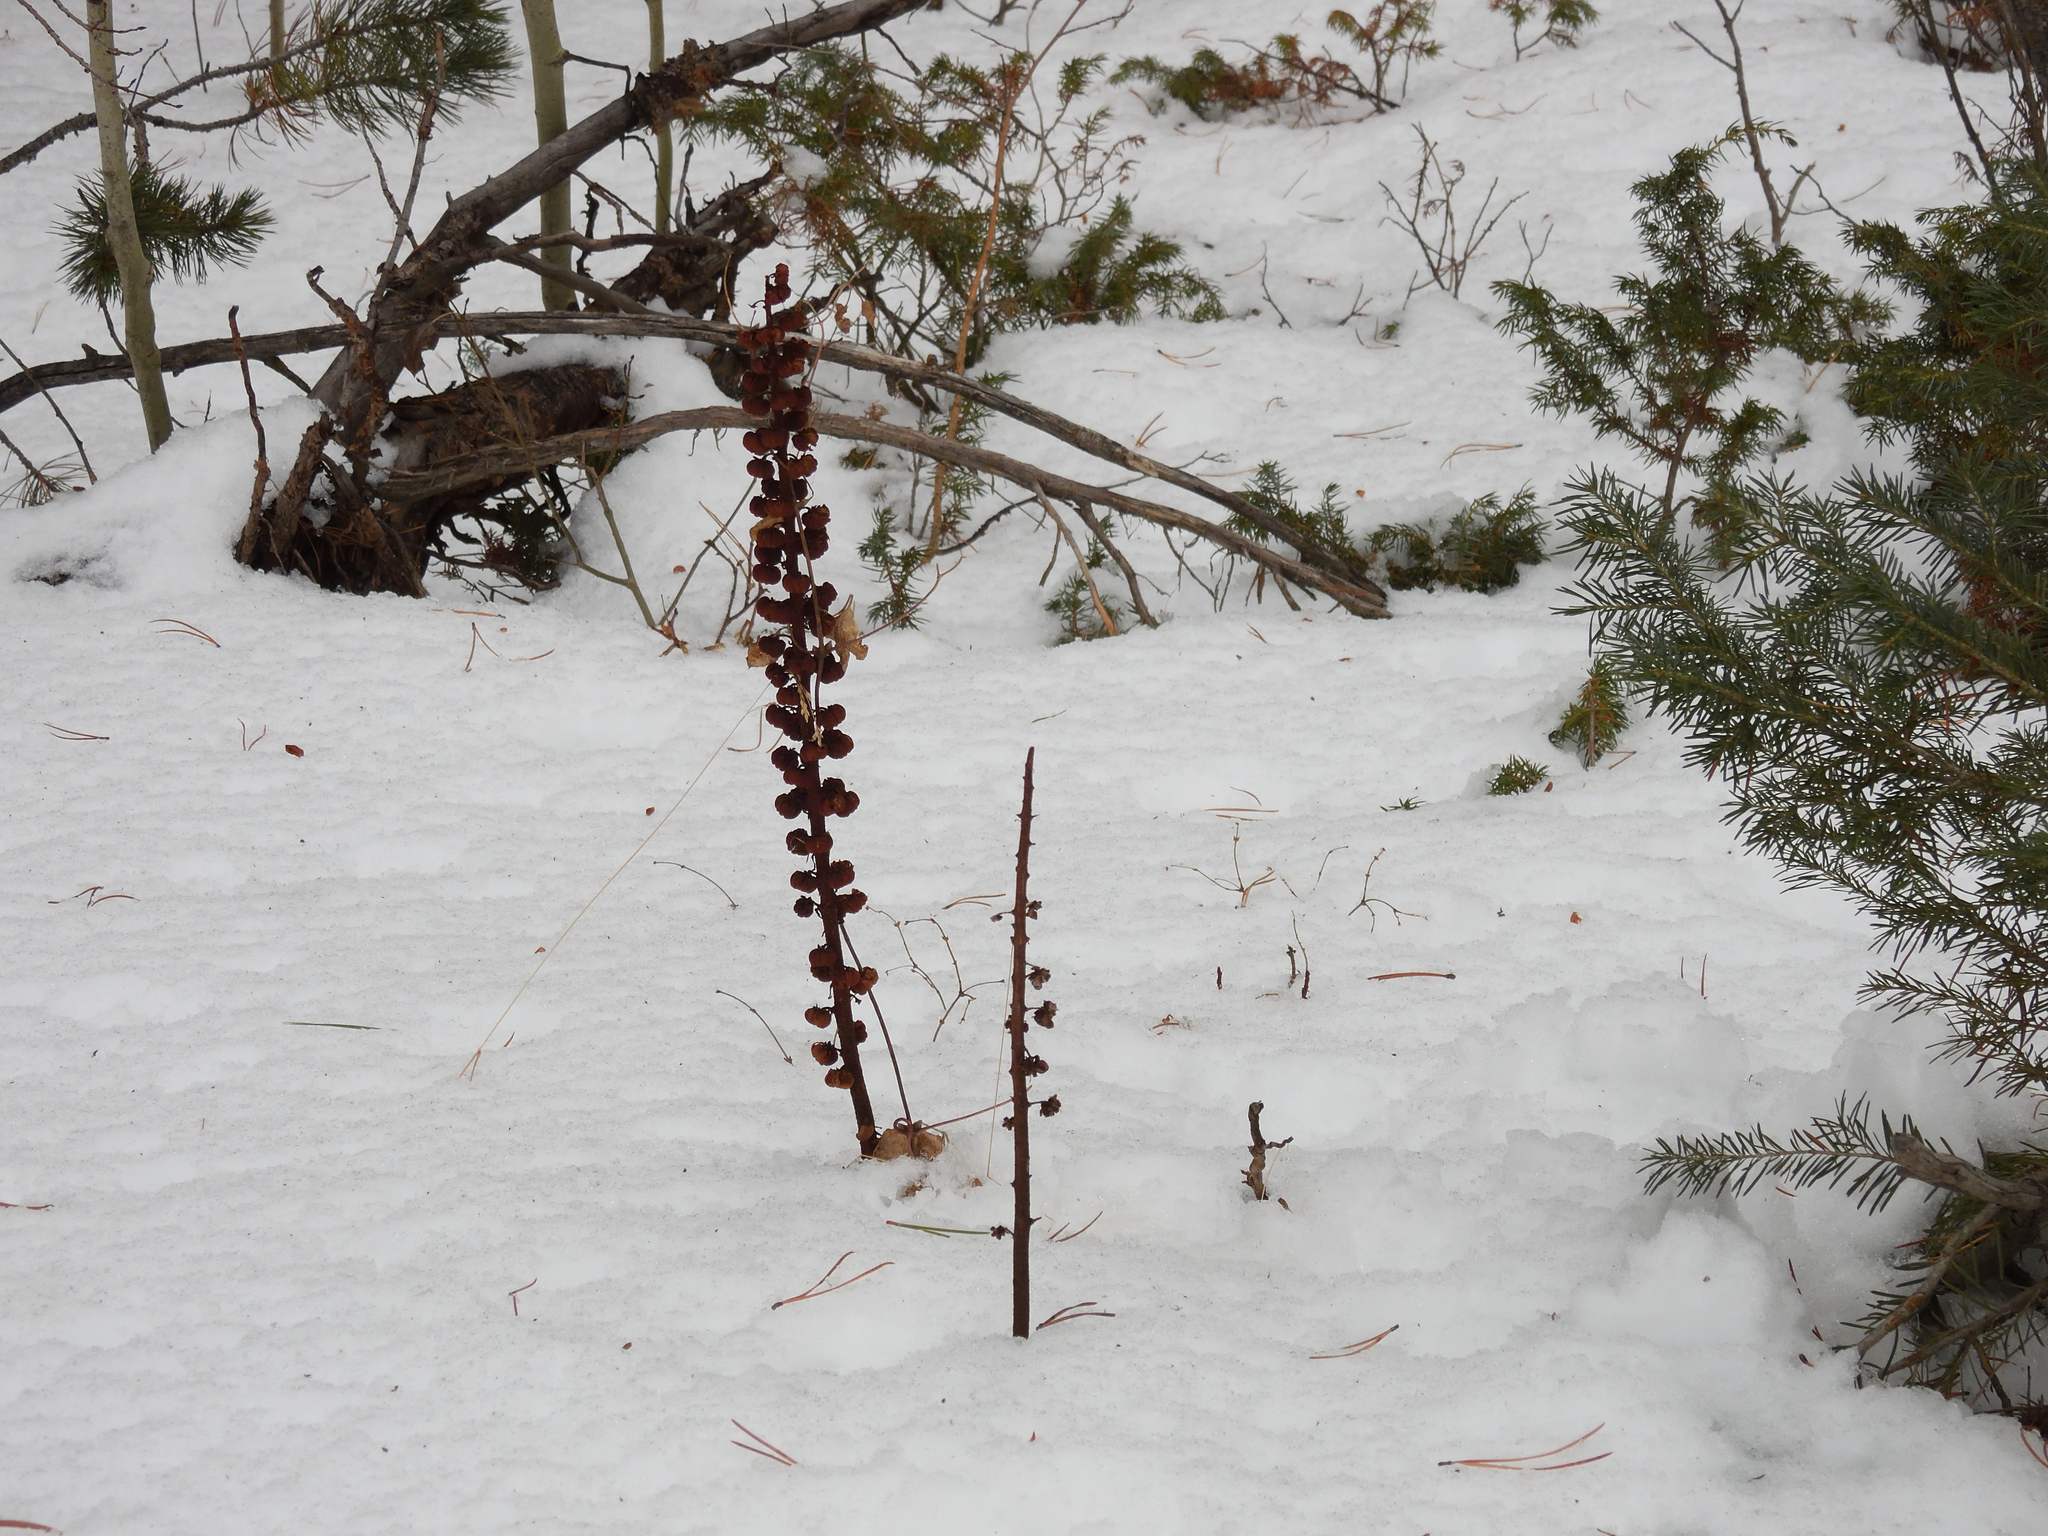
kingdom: Plantae
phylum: Tracheophyta
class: Magnoliopsida
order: Ericales
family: Ericaceae
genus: Pterospora
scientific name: Pterospora andromedea
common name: Giant bird's-nest
